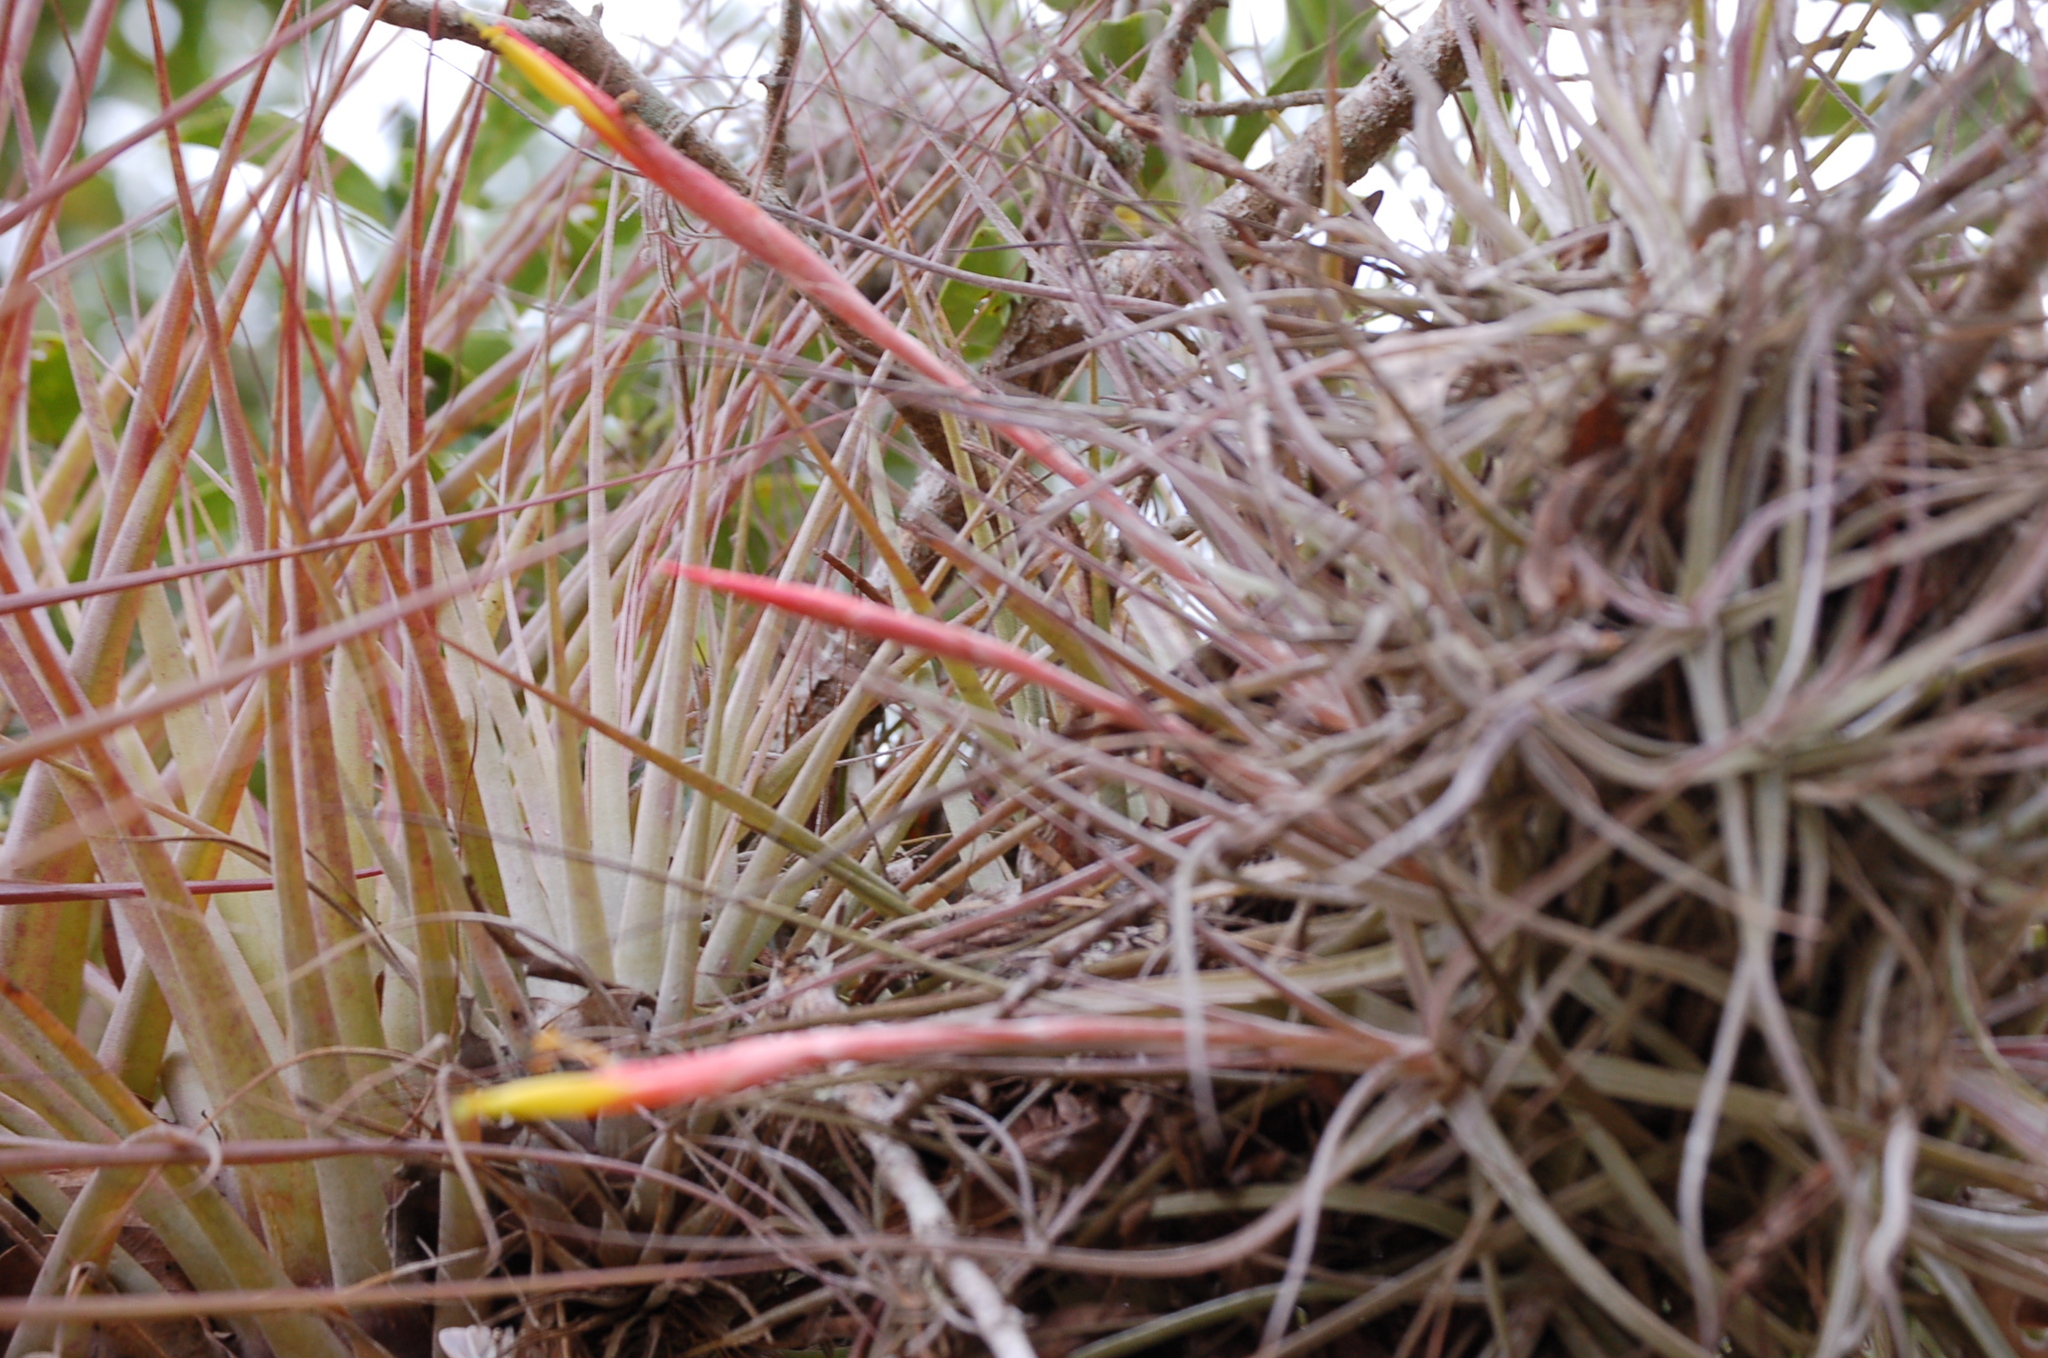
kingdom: Plantae
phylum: Tracheophyta
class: Liliopsida
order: Poales
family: Bromeliaceae
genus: Tillandsia
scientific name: Tillandsia schiedeana
